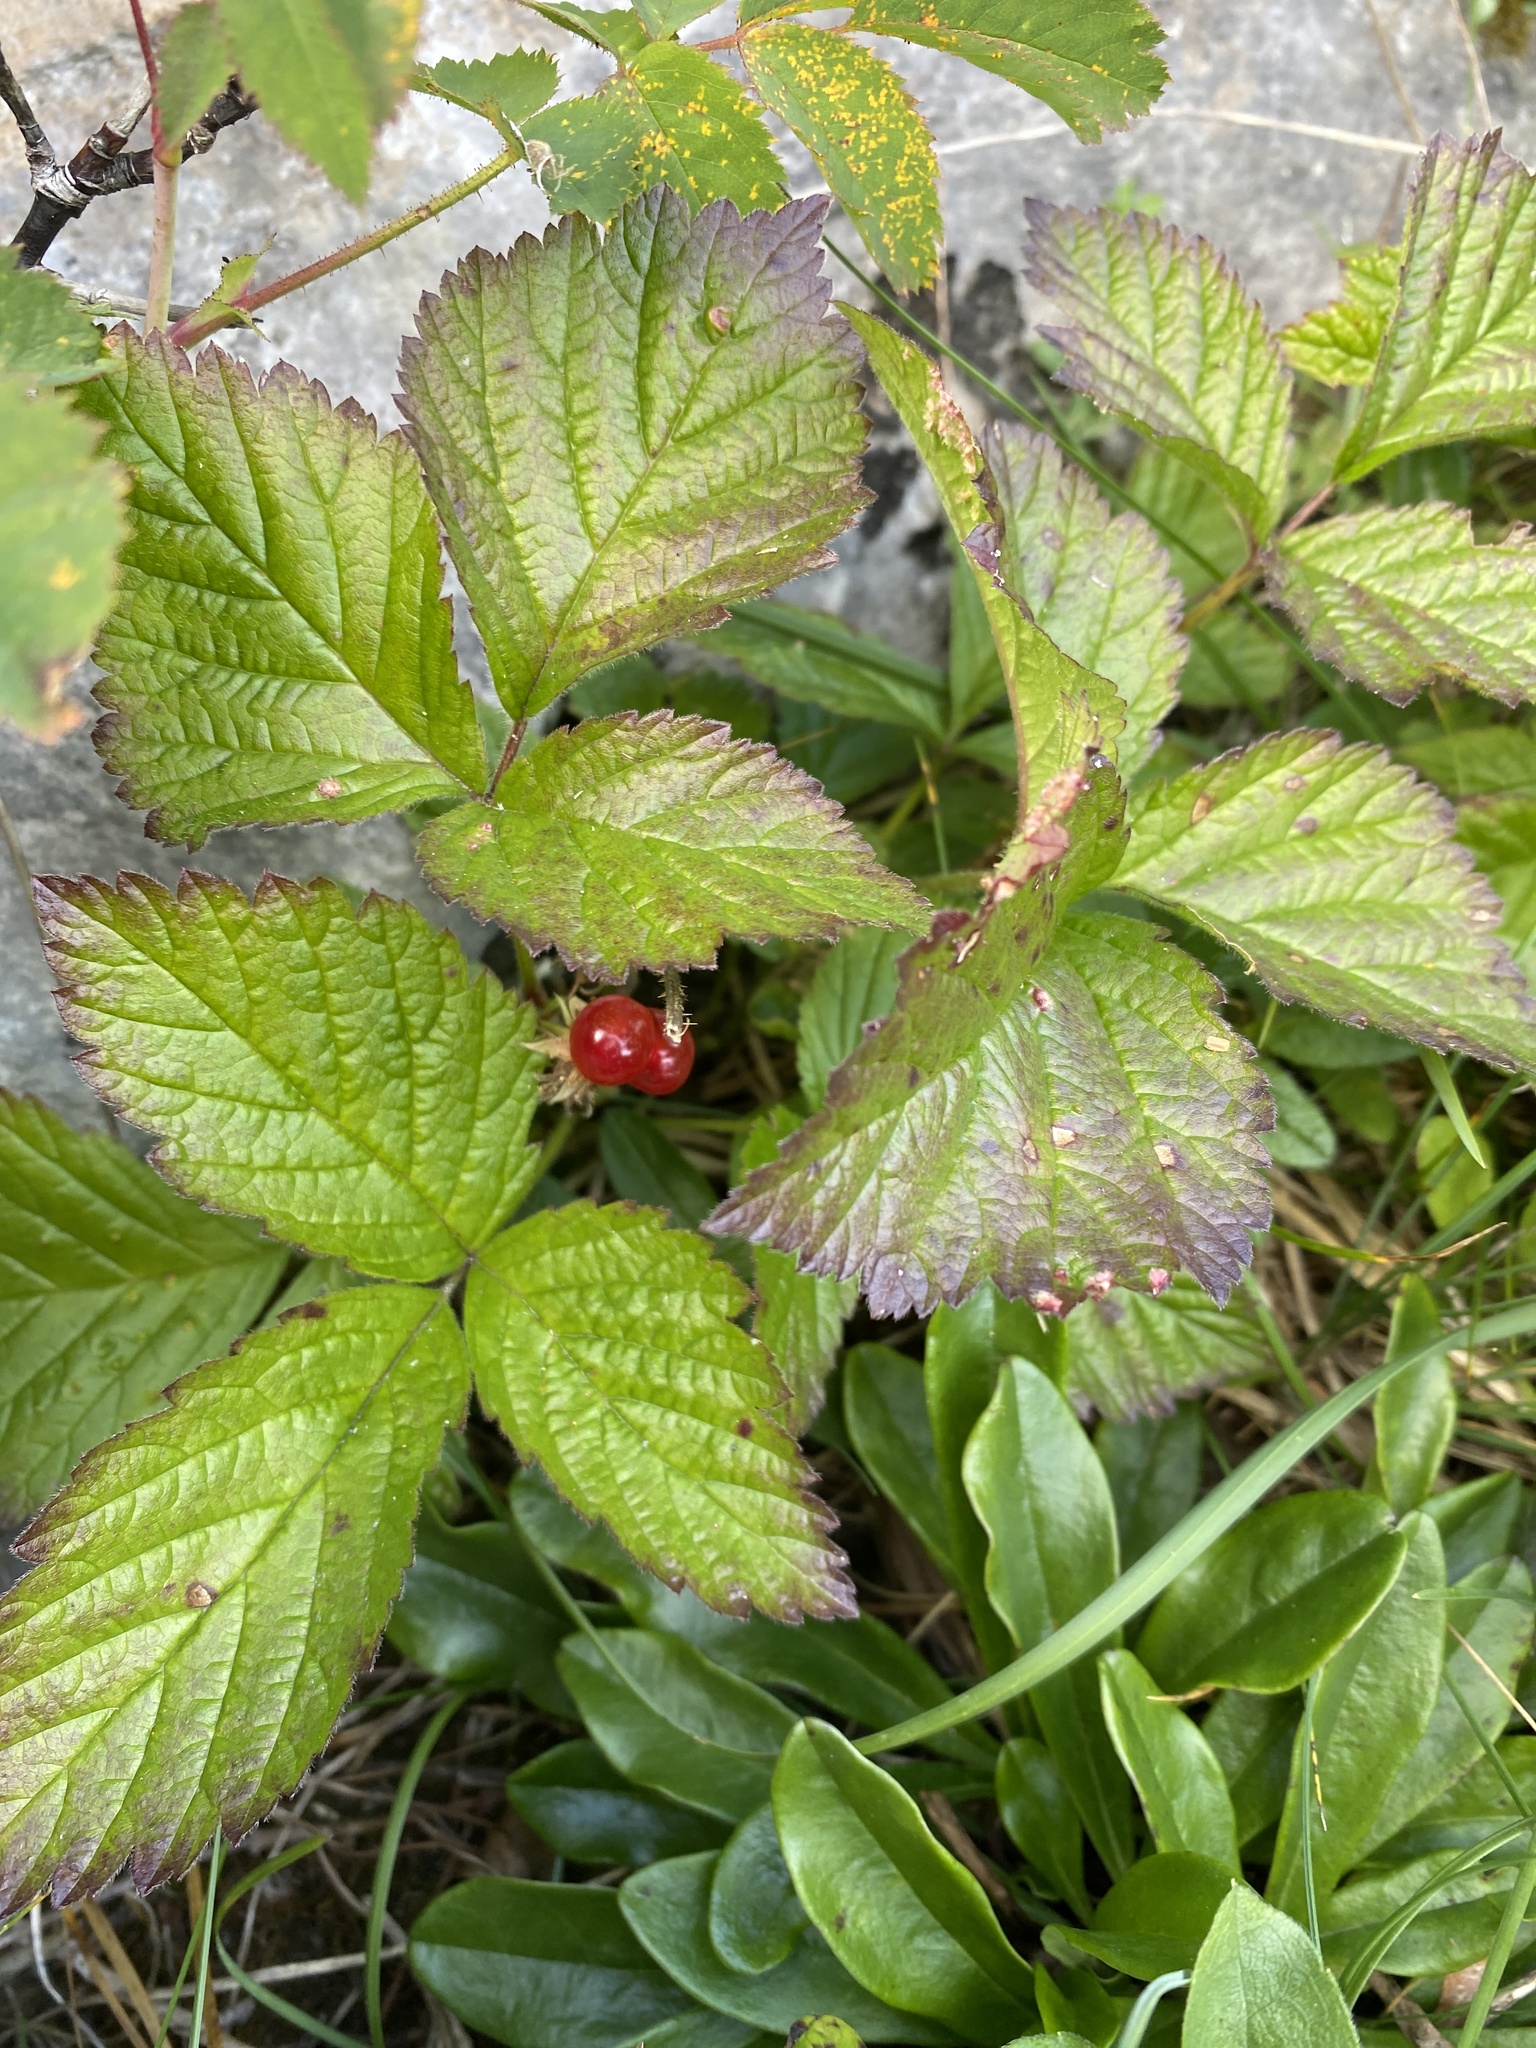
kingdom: Plantae
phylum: Tracheophyta
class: Magnoliopsida
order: Rosales
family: Rosaceae
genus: Rubus
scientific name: Rubus saxatilis
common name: Stone bramble
